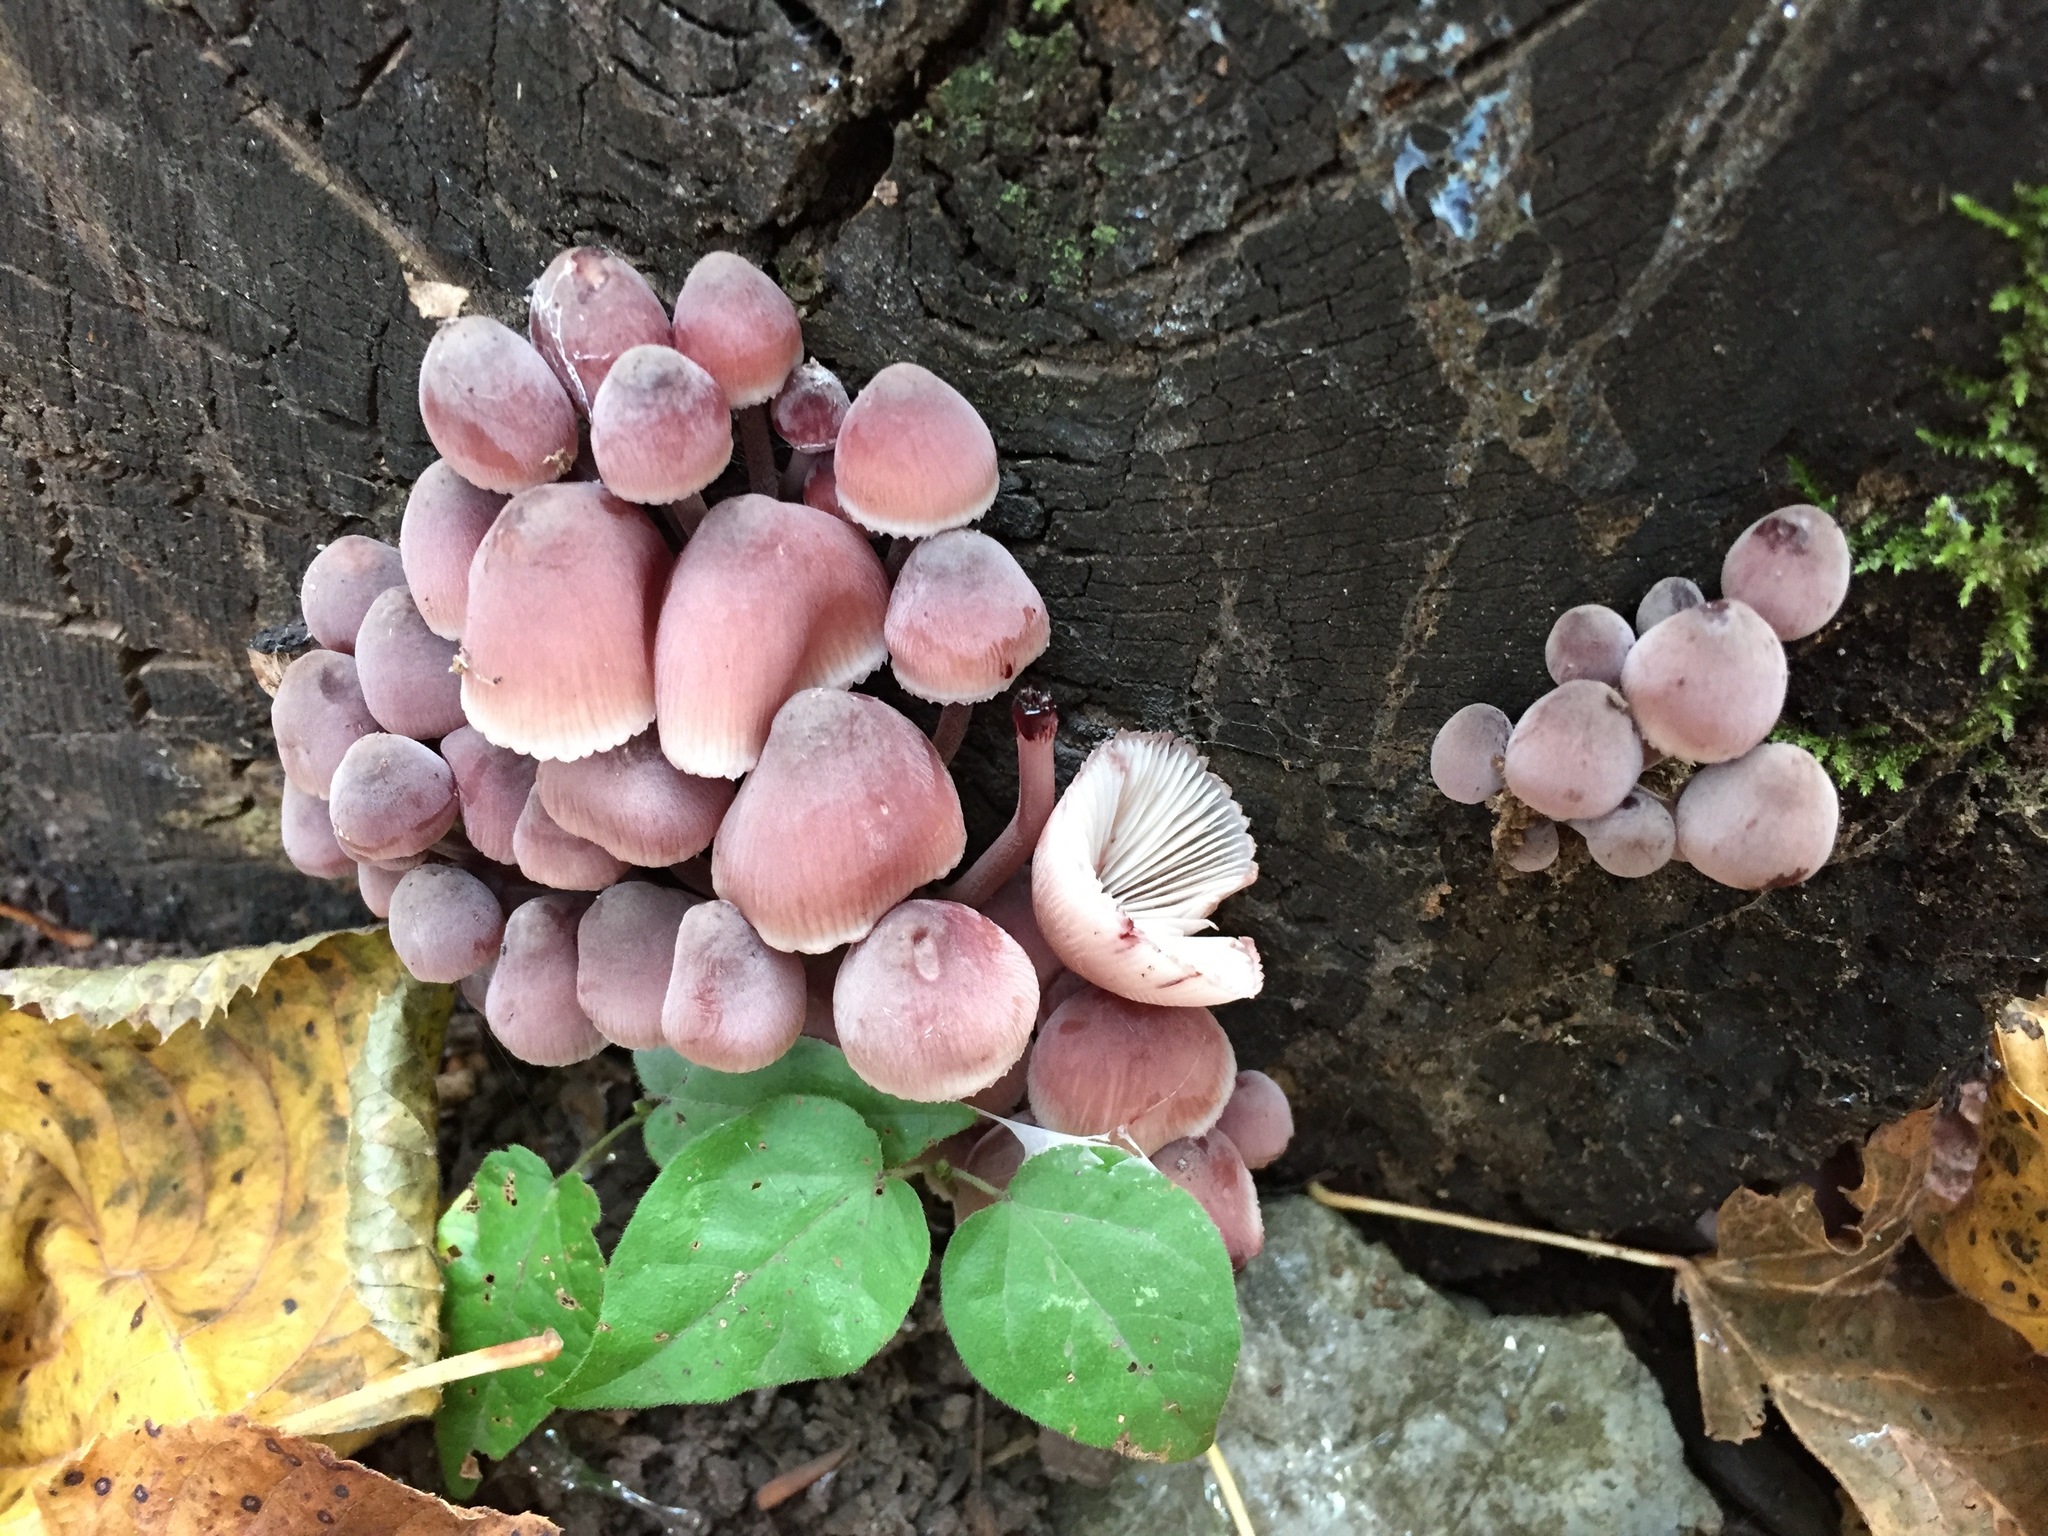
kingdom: Fungi
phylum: Basidiomycota
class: Agaricomycetes
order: Agaricales
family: Mycenaceae
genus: Mycena
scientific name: Mycena haematopus
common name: Burgundydrop bonnet
